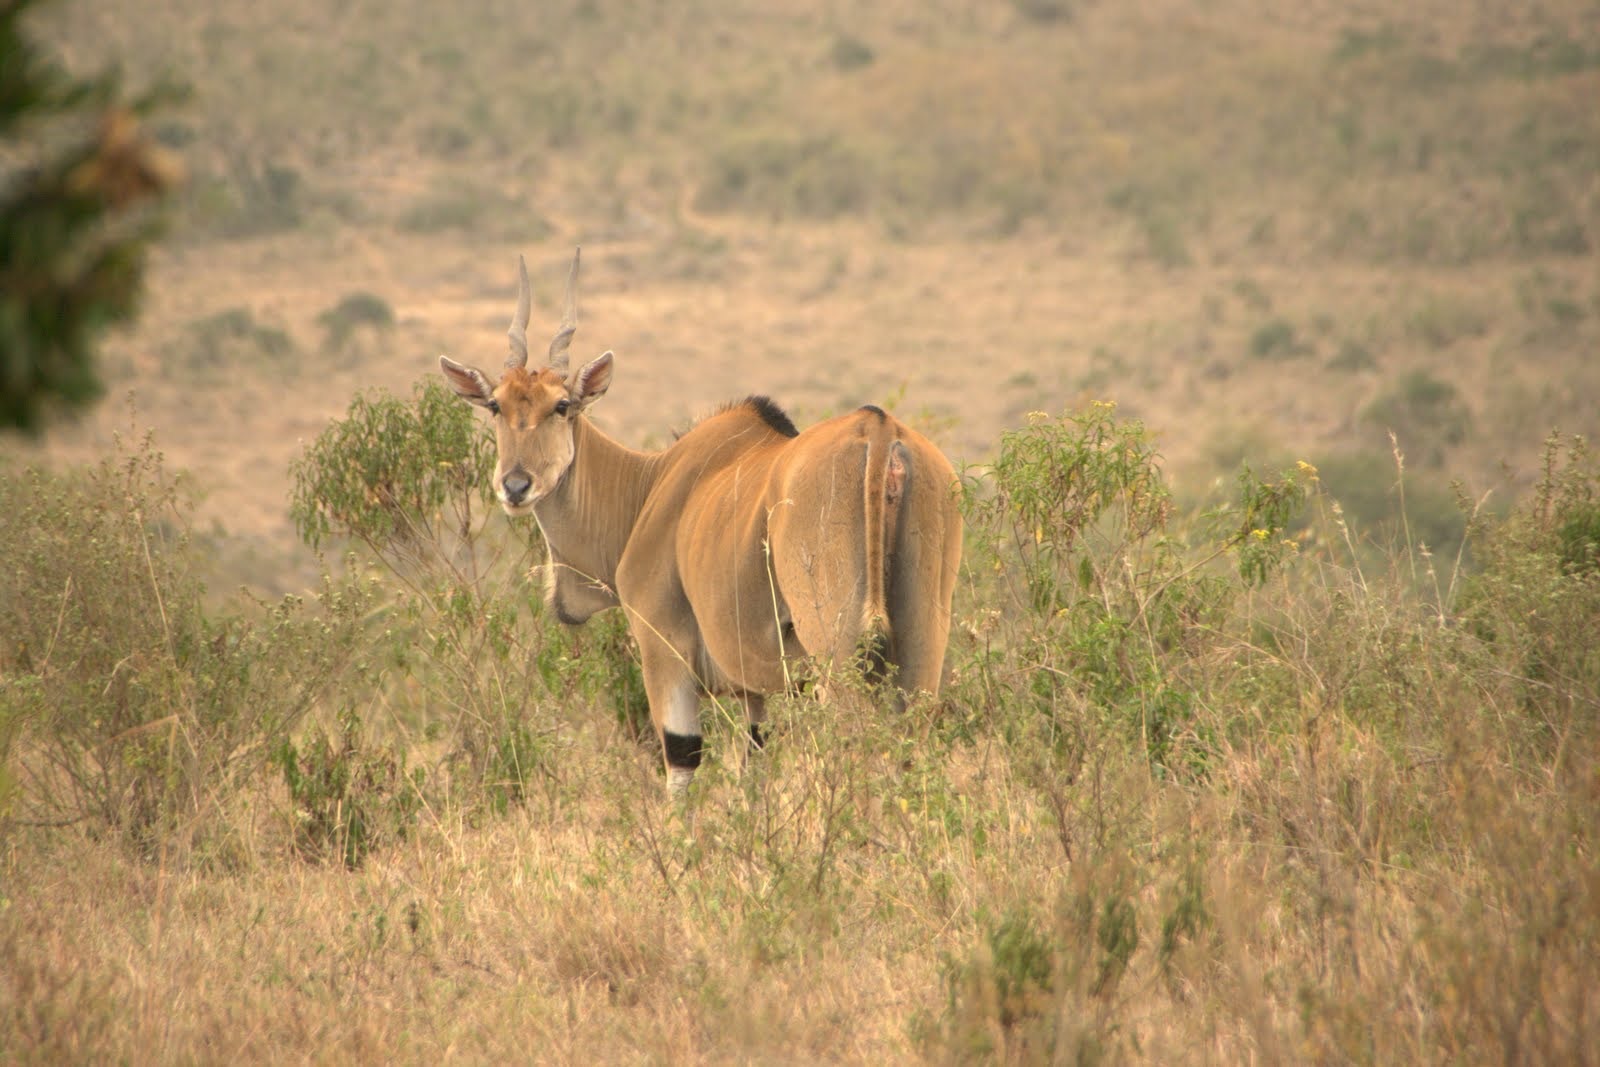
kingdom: Animalia
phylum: Chordata
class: Mammalia
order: Artiodactyla
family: Bovidae
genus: Taurotragus
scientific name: Taurotragus oryx
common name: Common eland
